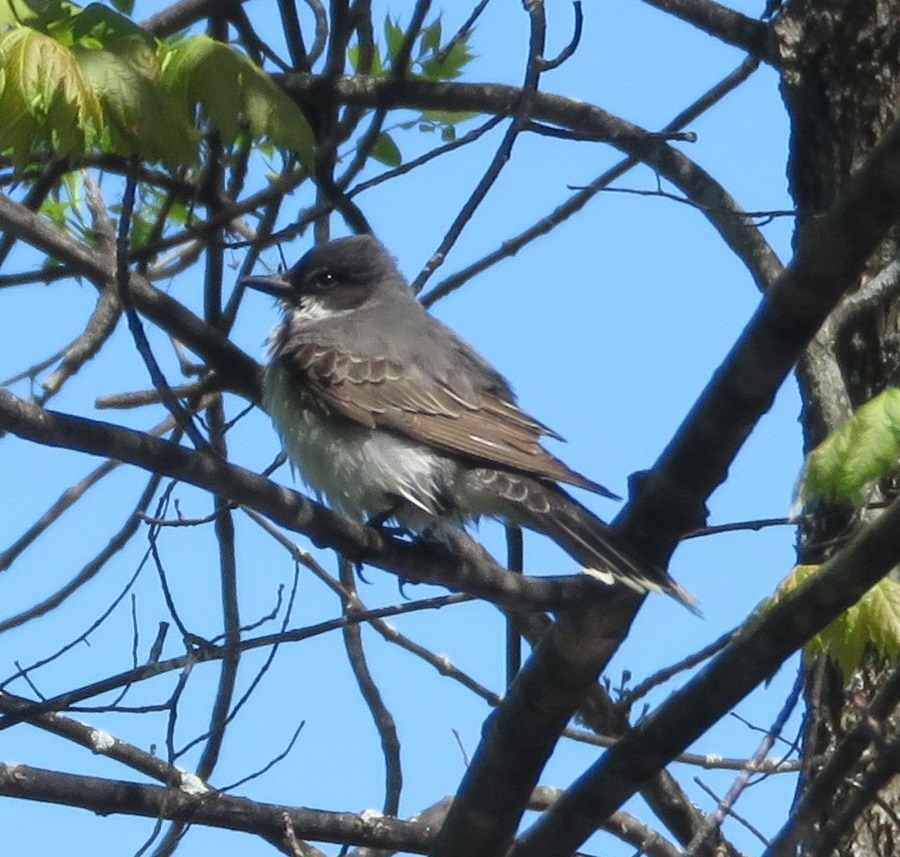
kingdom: Animalia
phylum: Chordata
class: Aves
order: Passeriformes
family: Tyrannidae
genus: Tyrannus
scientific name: Tyrannus tyrannus
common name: Eastern kingbird
